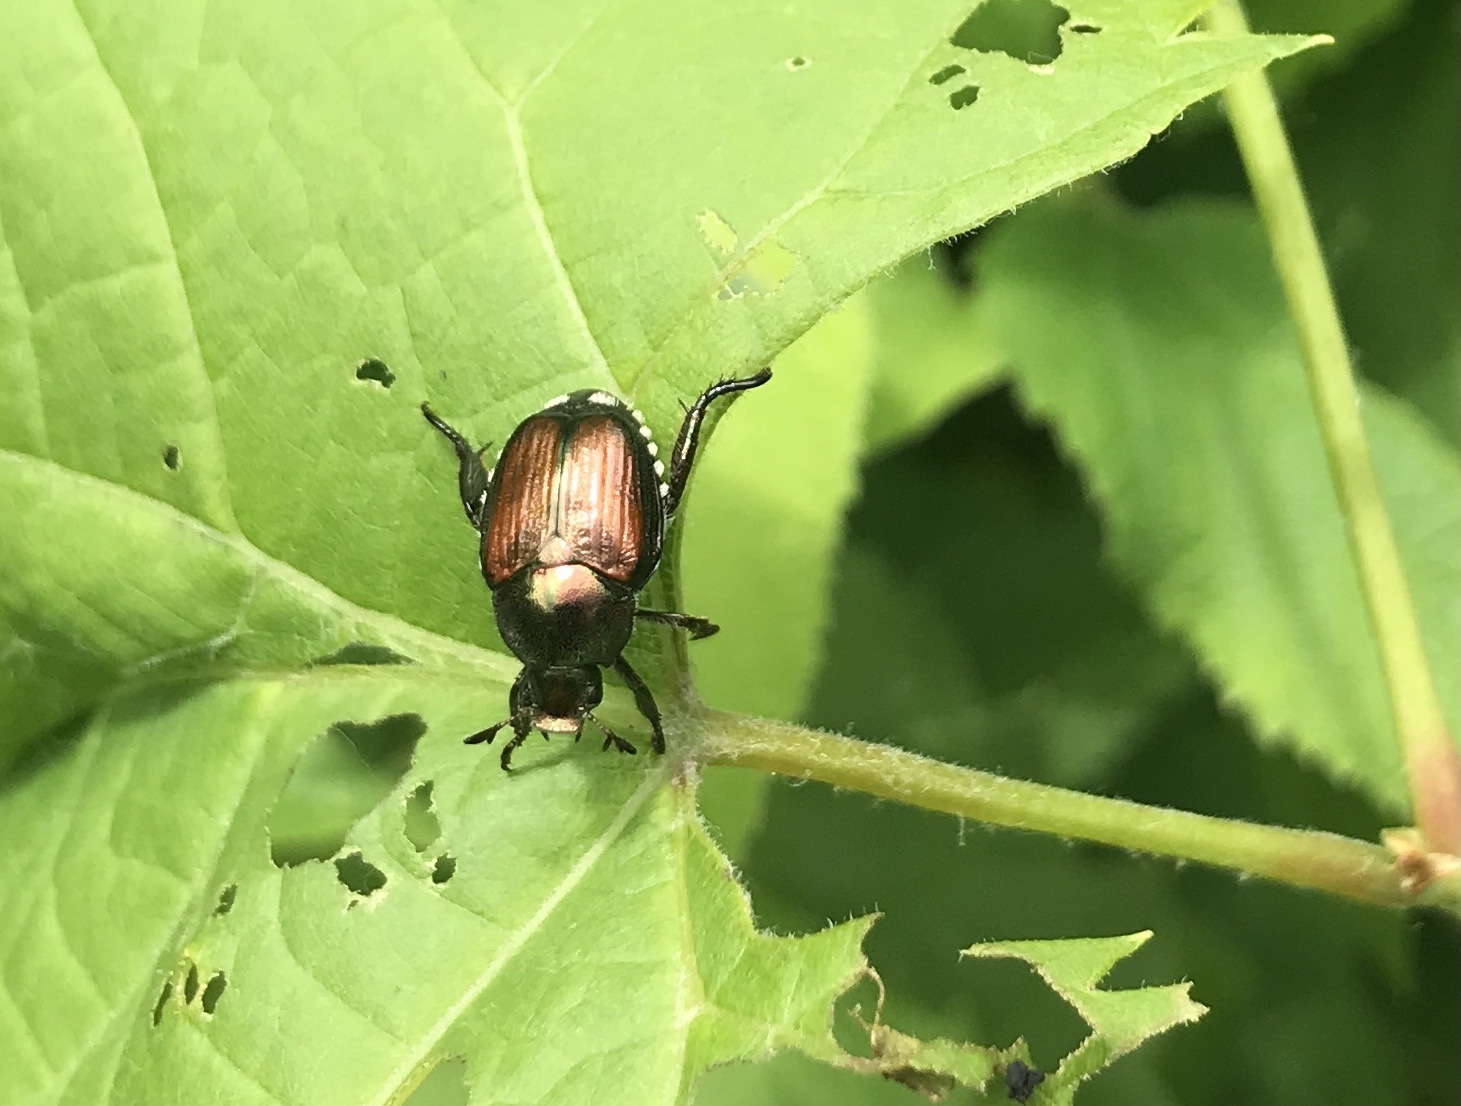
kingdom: Animalia
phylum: Arthropoda
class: Insecta
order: Coleoptera
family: Scarabaeidae
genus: Popillia
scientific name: Popillia japonica
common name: Japanese beetle
